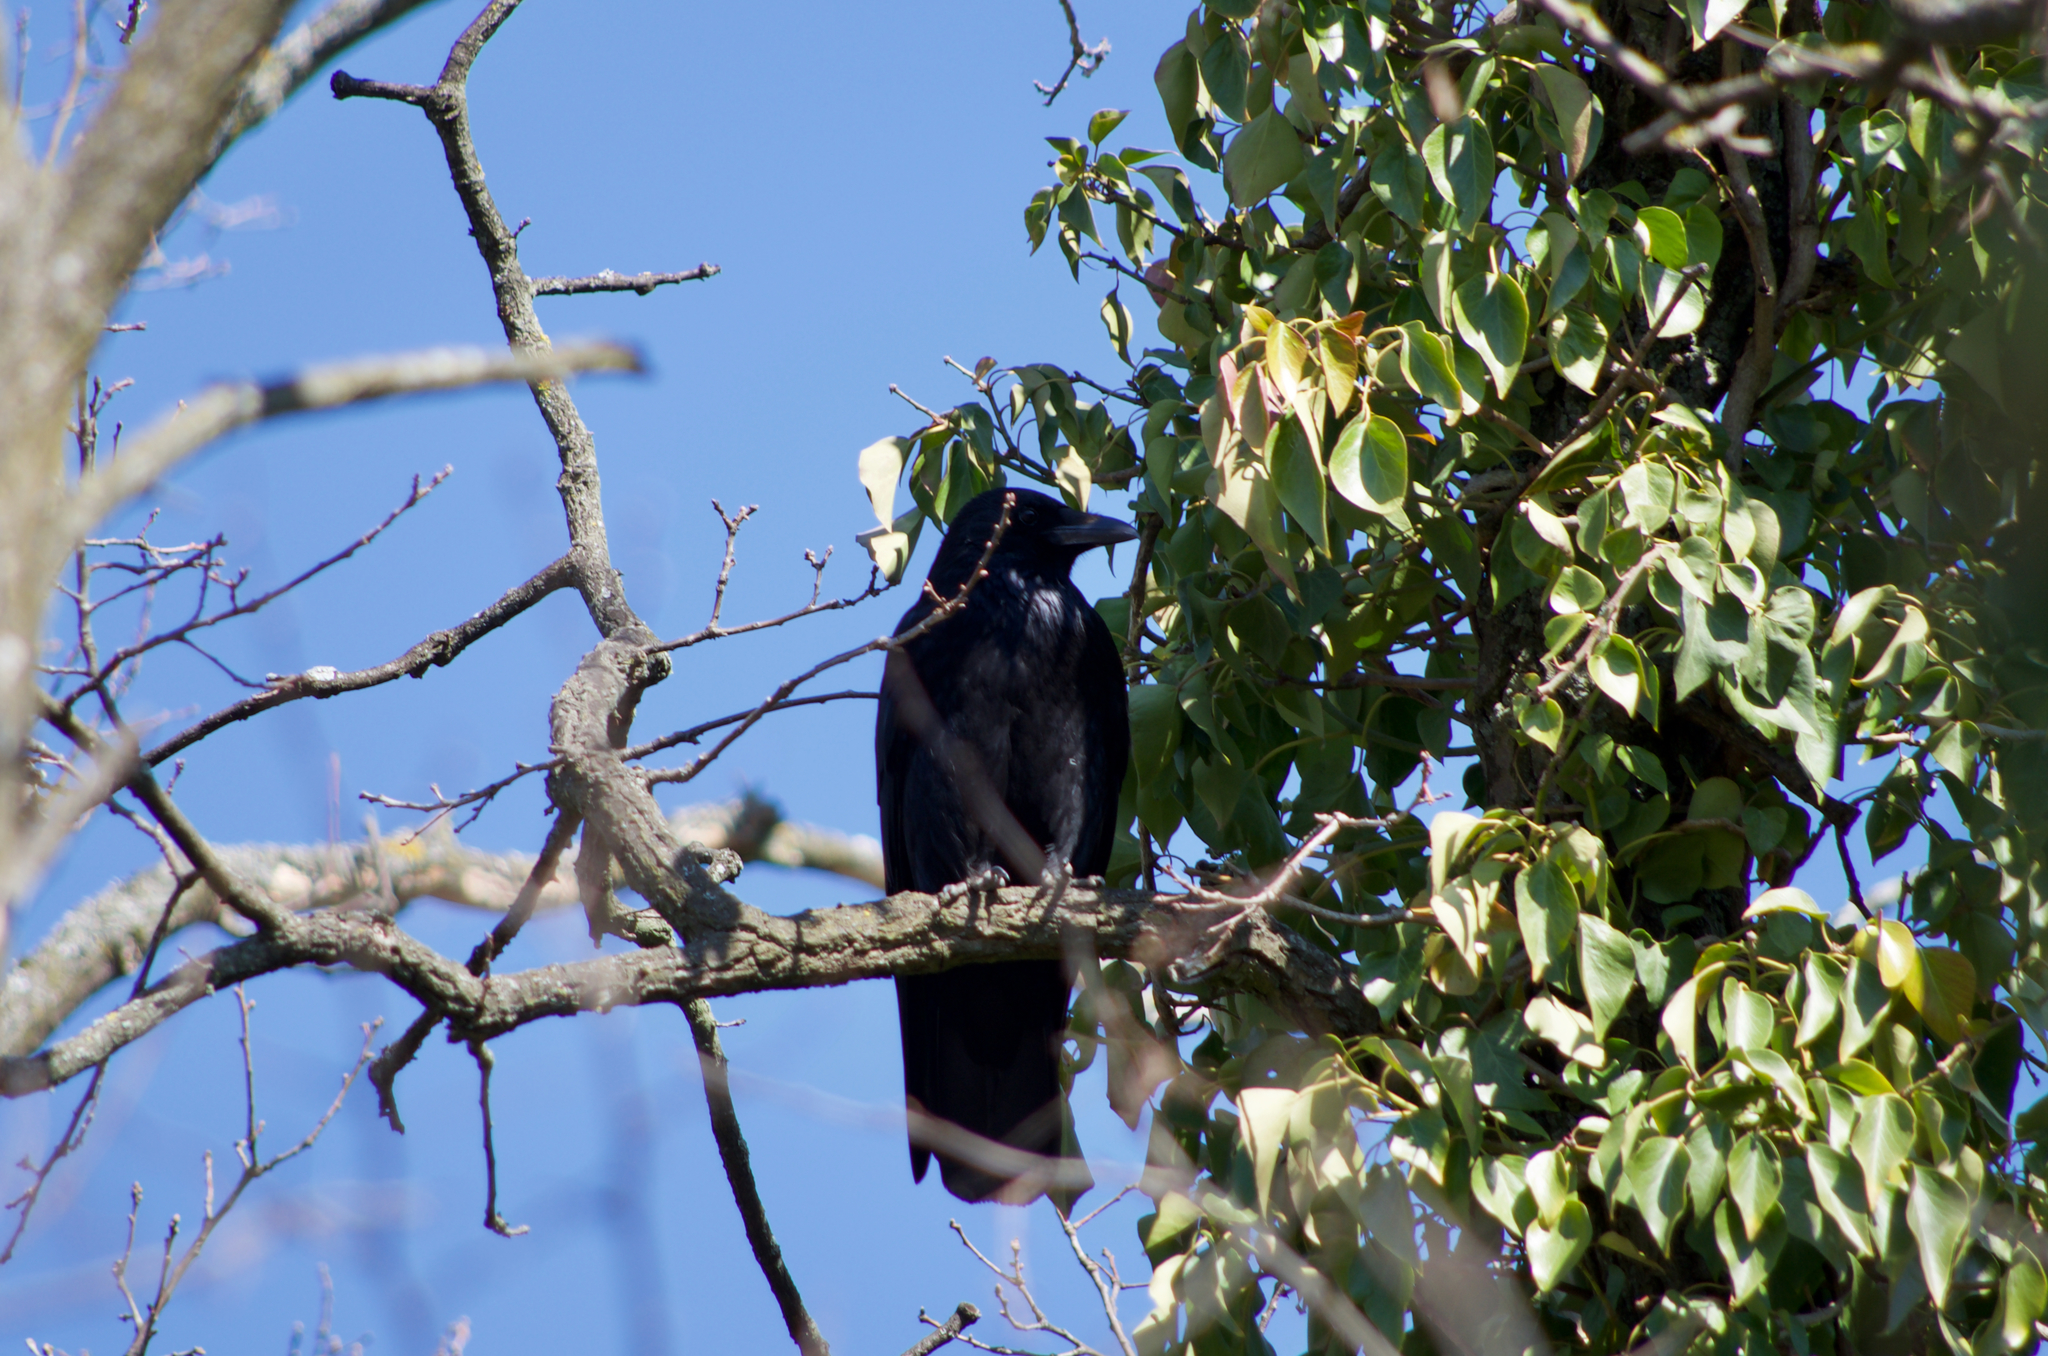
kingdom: Animalia
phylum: Chordata
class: Aves
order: Passeriformes
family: Corvidae
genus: Corvus
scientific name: Corvus corone
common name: Carrion crow
